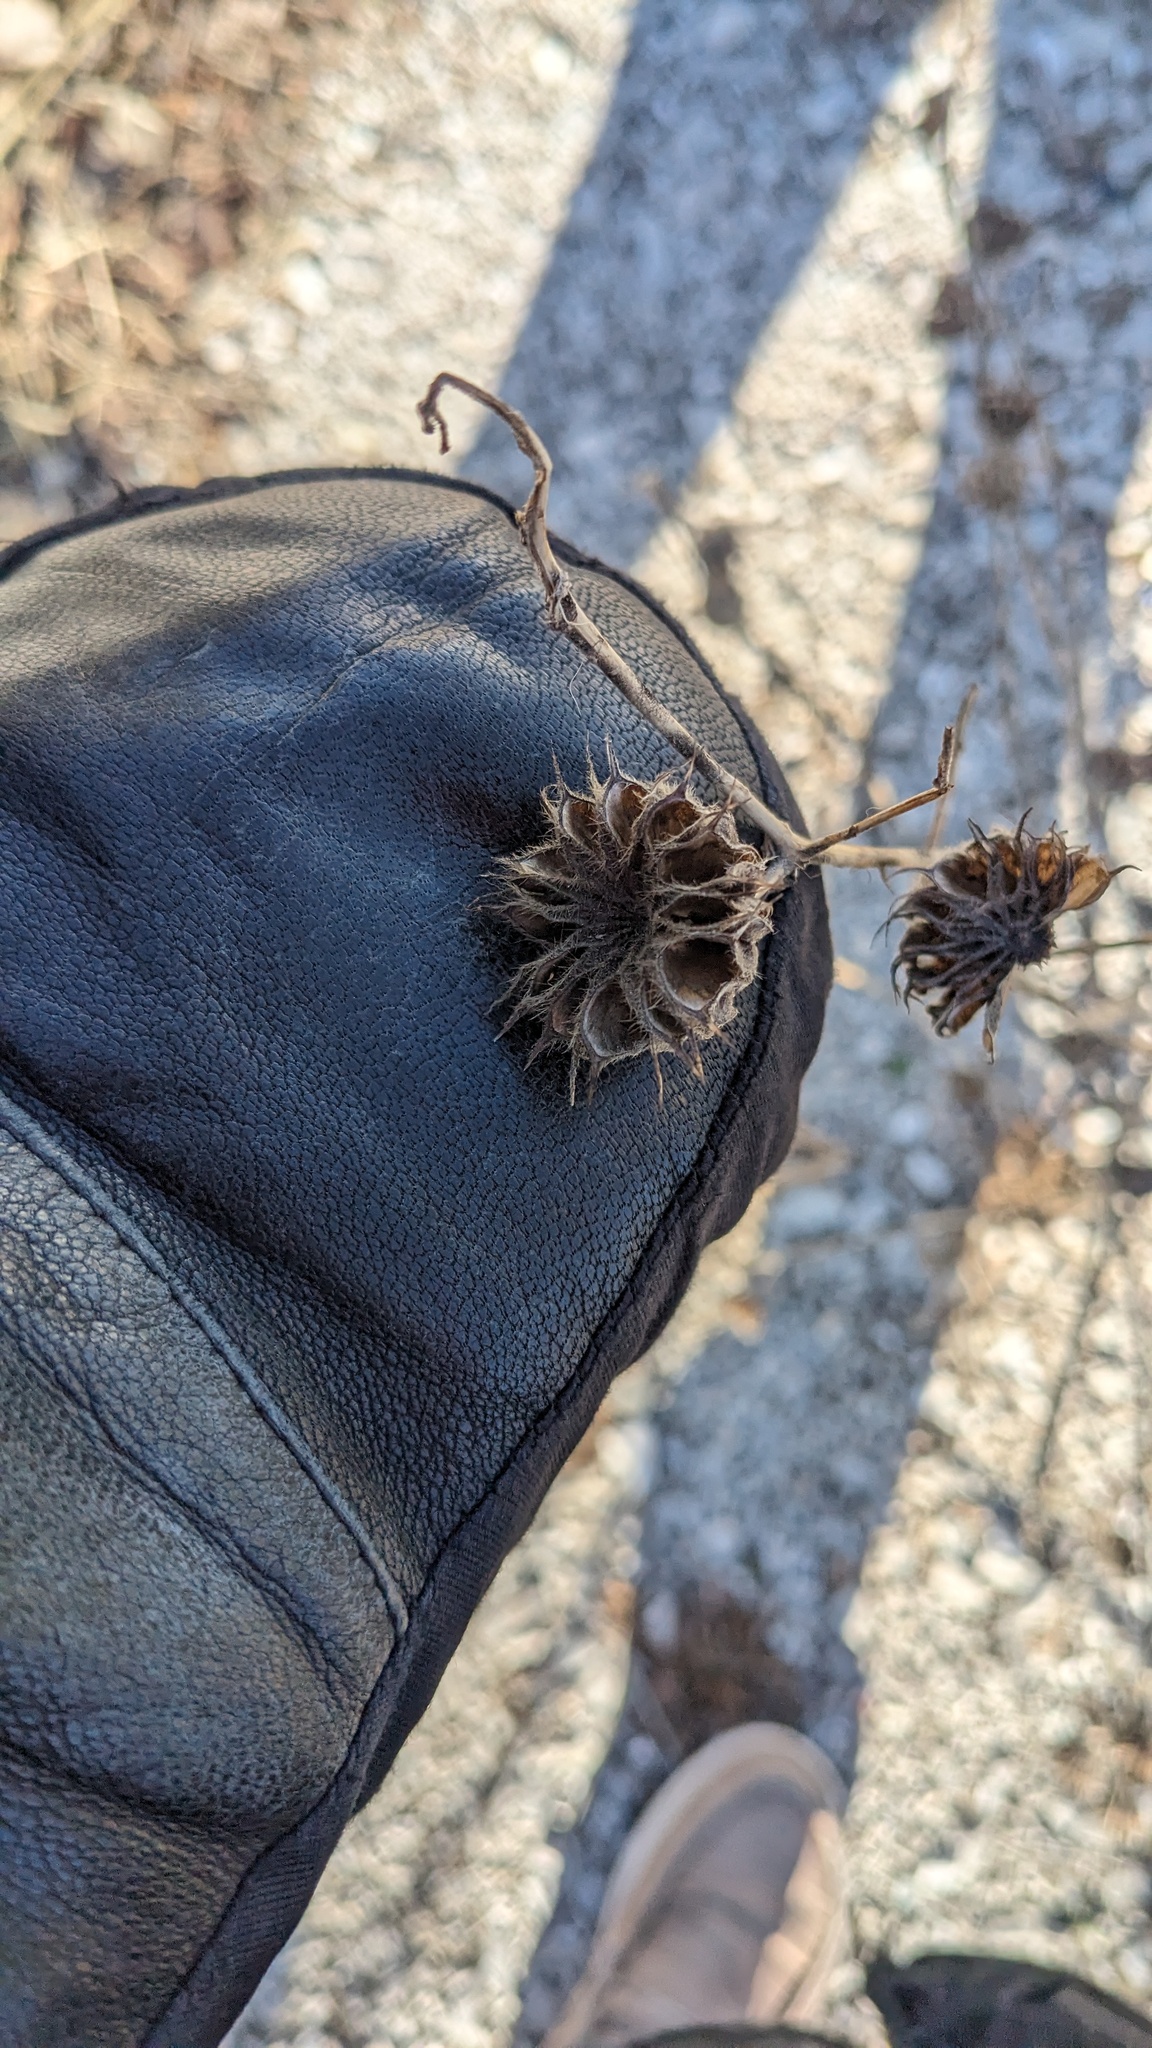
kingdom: Plantae
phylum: Tracheophyta
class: Magnoliopsida
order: Malvales
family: Malvaceae
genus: Abutilon
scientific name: Abutilon theophrasti
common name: Velvetleaf
